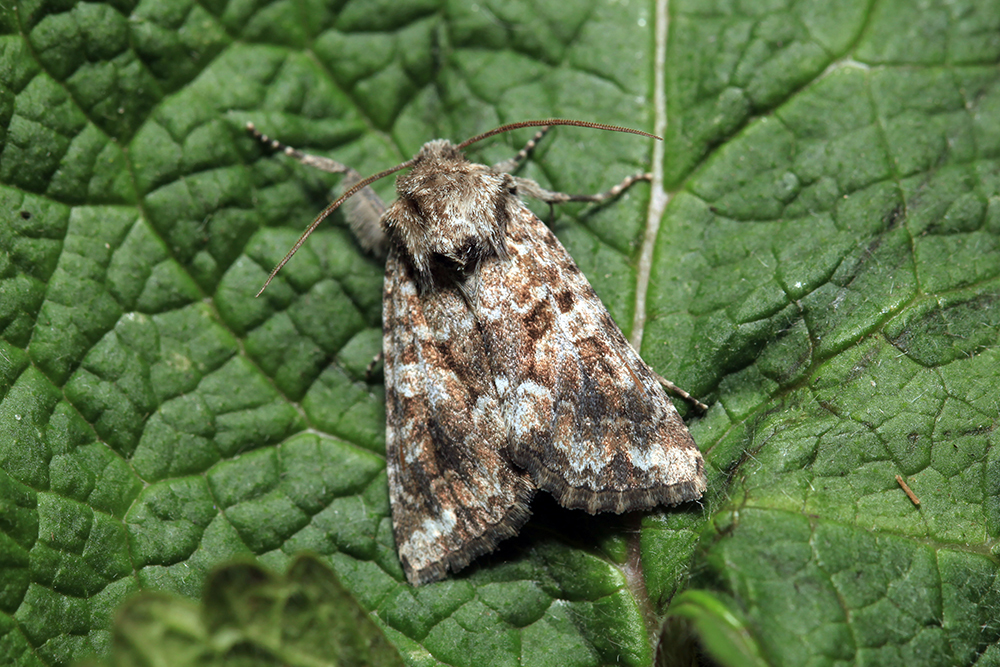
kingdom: Animalia
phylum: Arthropoda
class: Insecta
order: Lepidoptera
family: Noctuidae
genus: Conisania
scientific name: Conisania literata
